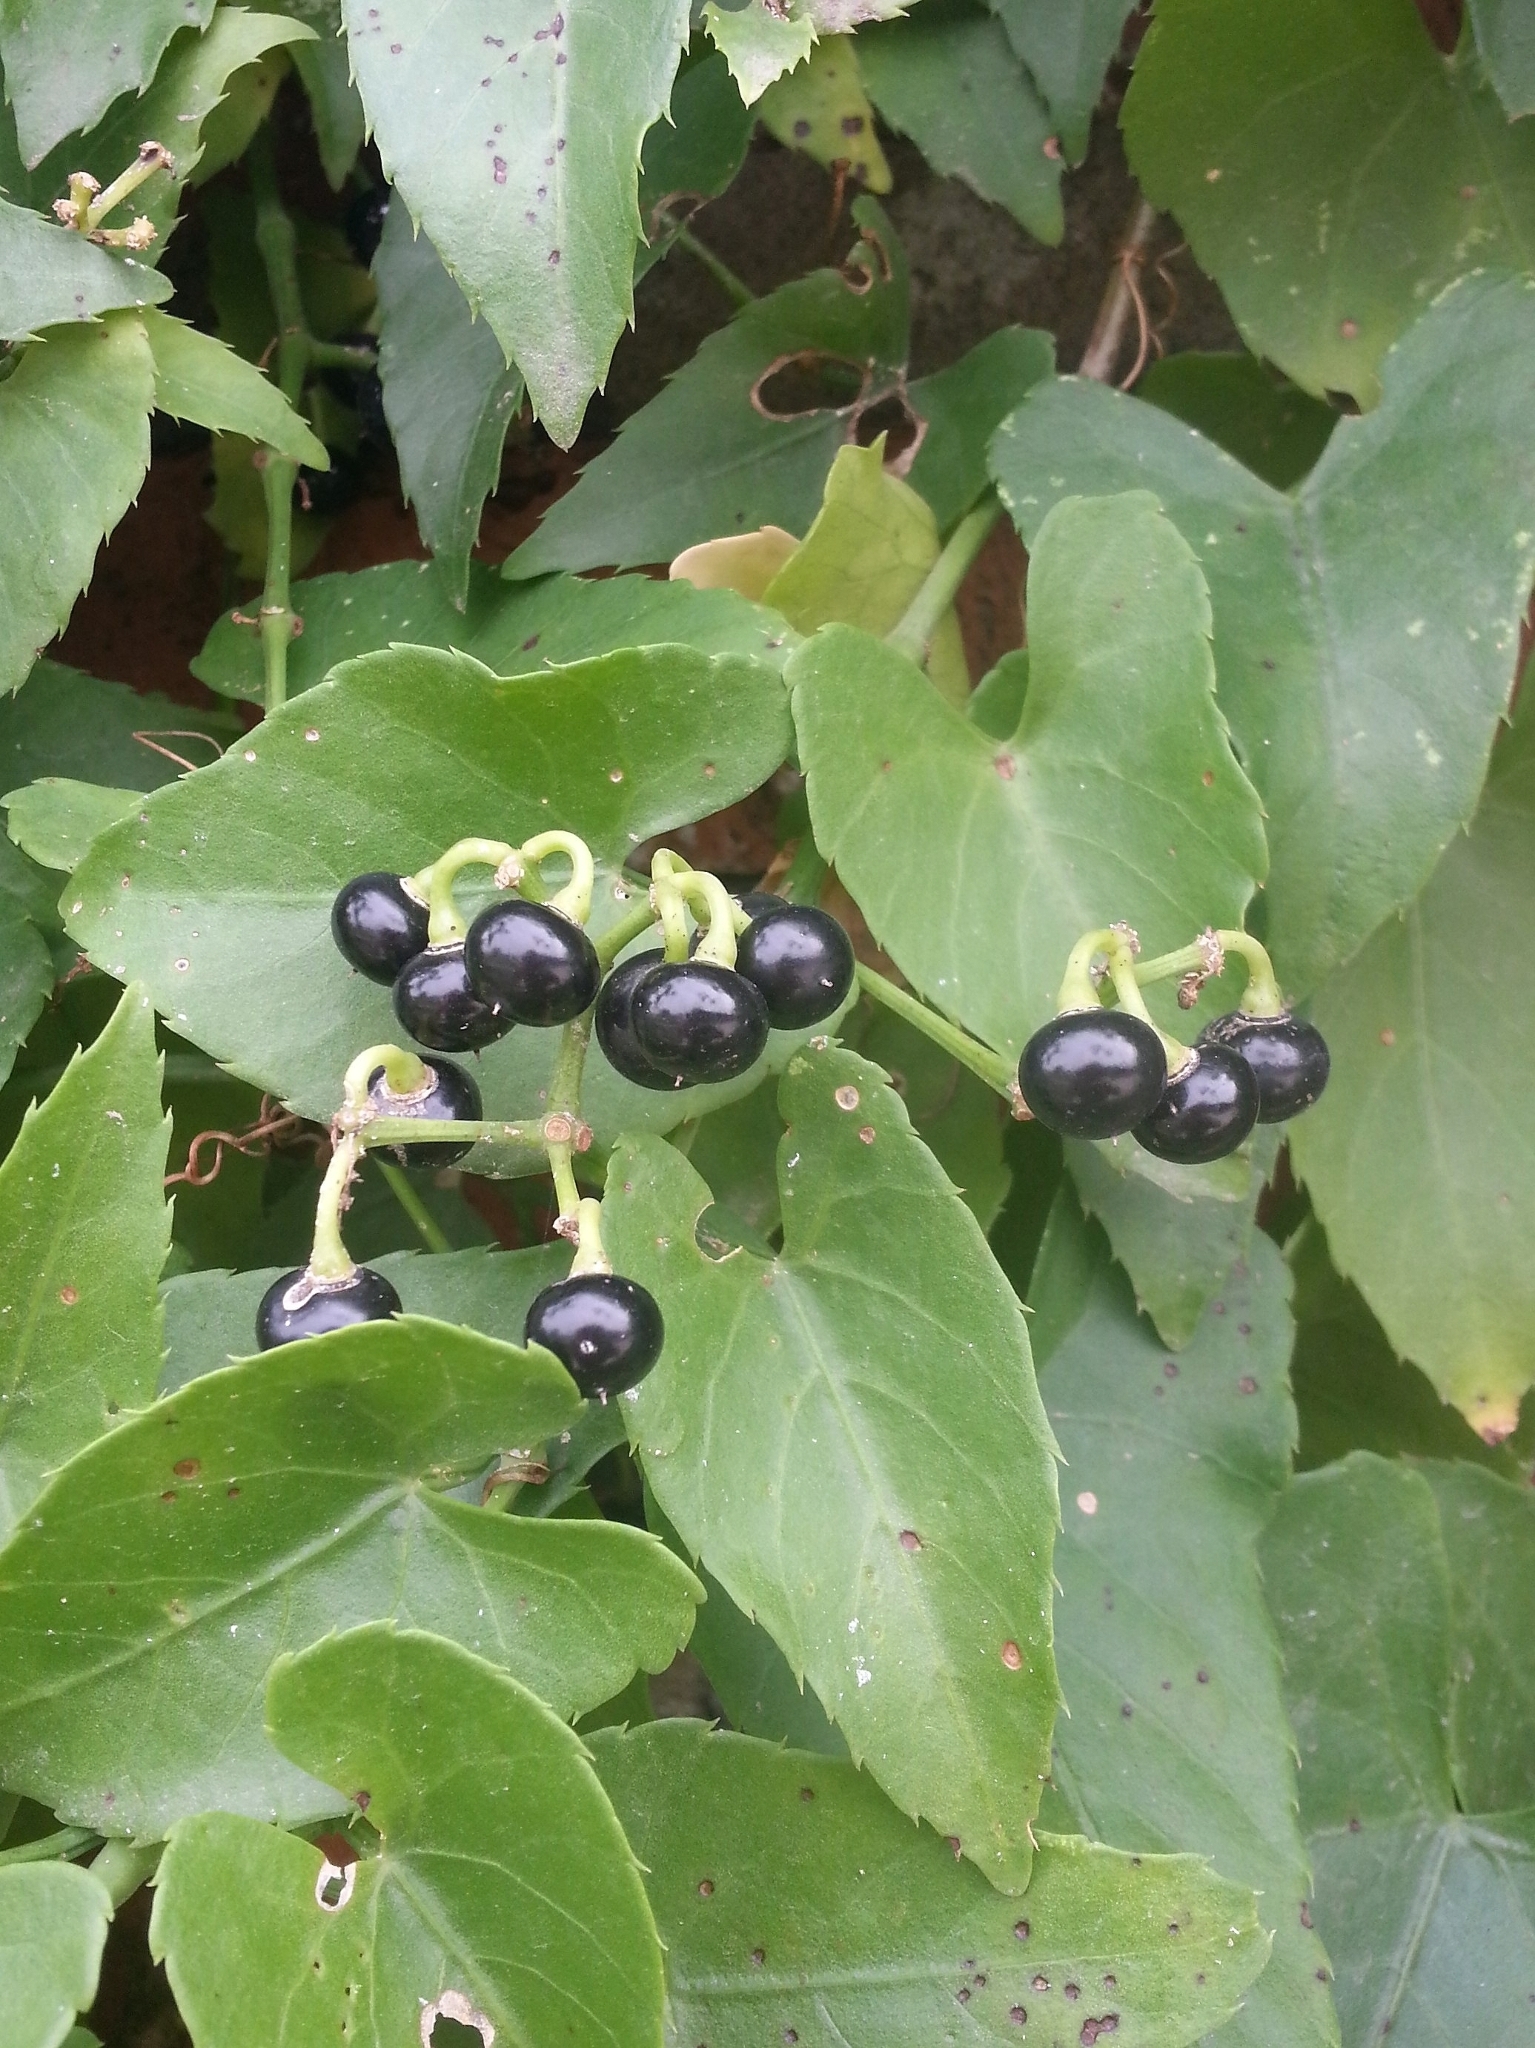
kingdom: Plantae
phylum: Tracheophyta
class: Magnoliopsida
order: Vitales
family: Vitaceae
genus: Cissus
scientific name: Cissus verticillata
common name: Princess vine
